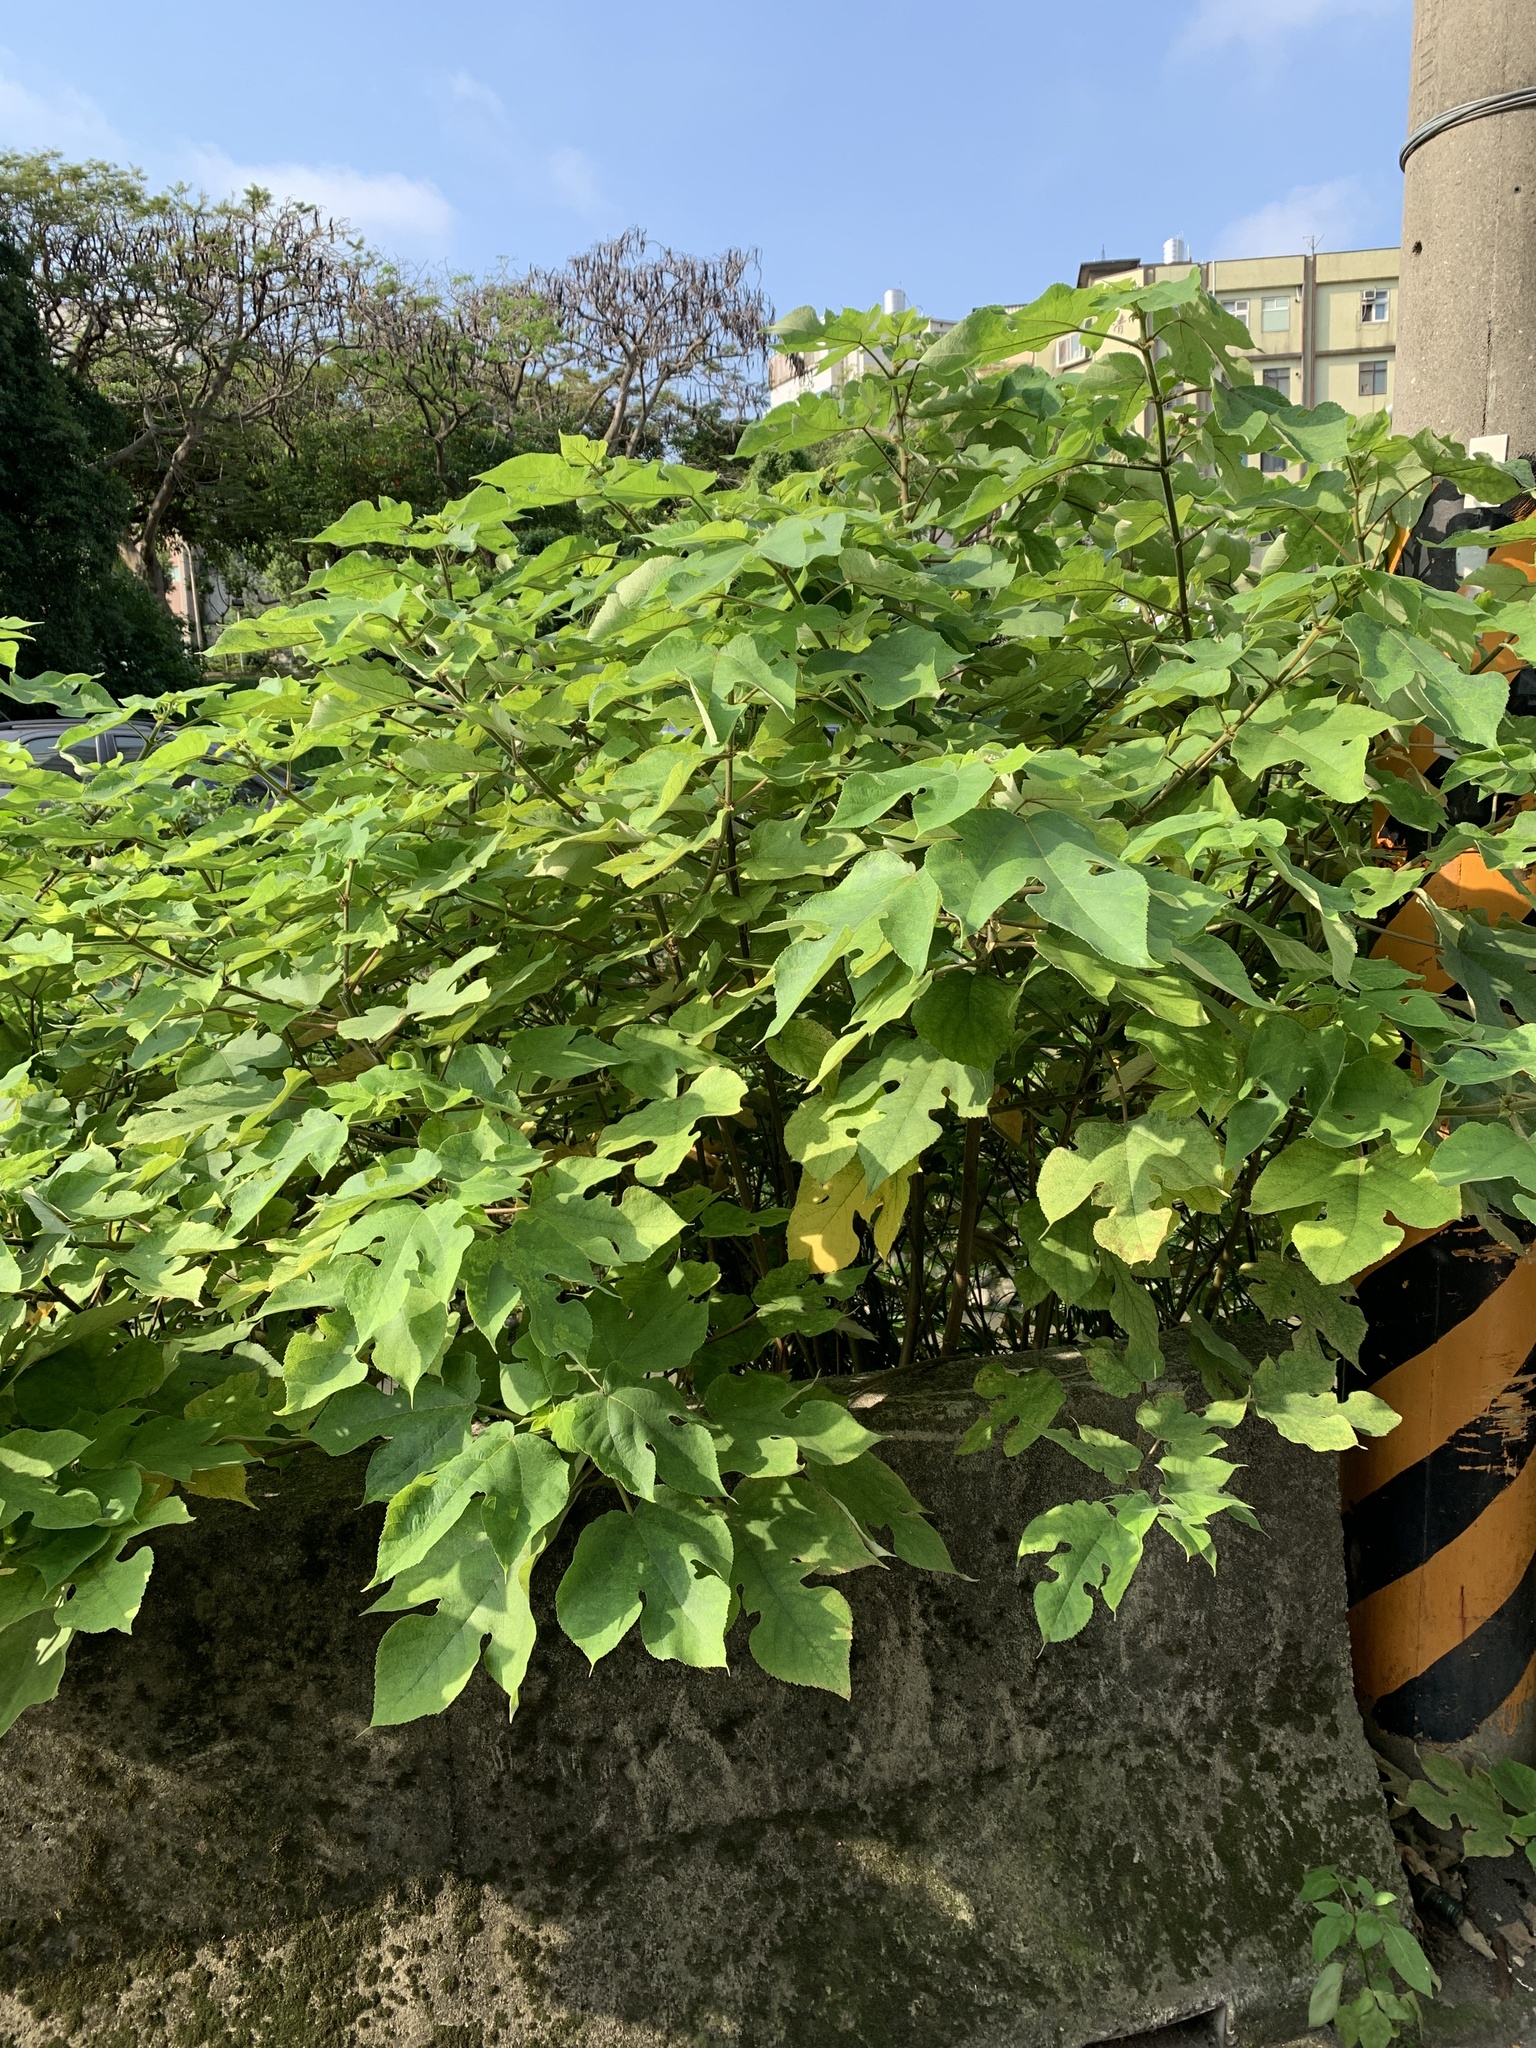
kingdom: Plantae
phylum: Tracheophyta
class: Magnoliopsida
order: Rosales
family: Moraceae
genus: Broussonetia
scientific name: Broussonetia papyrifera
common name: Paper mulberry
